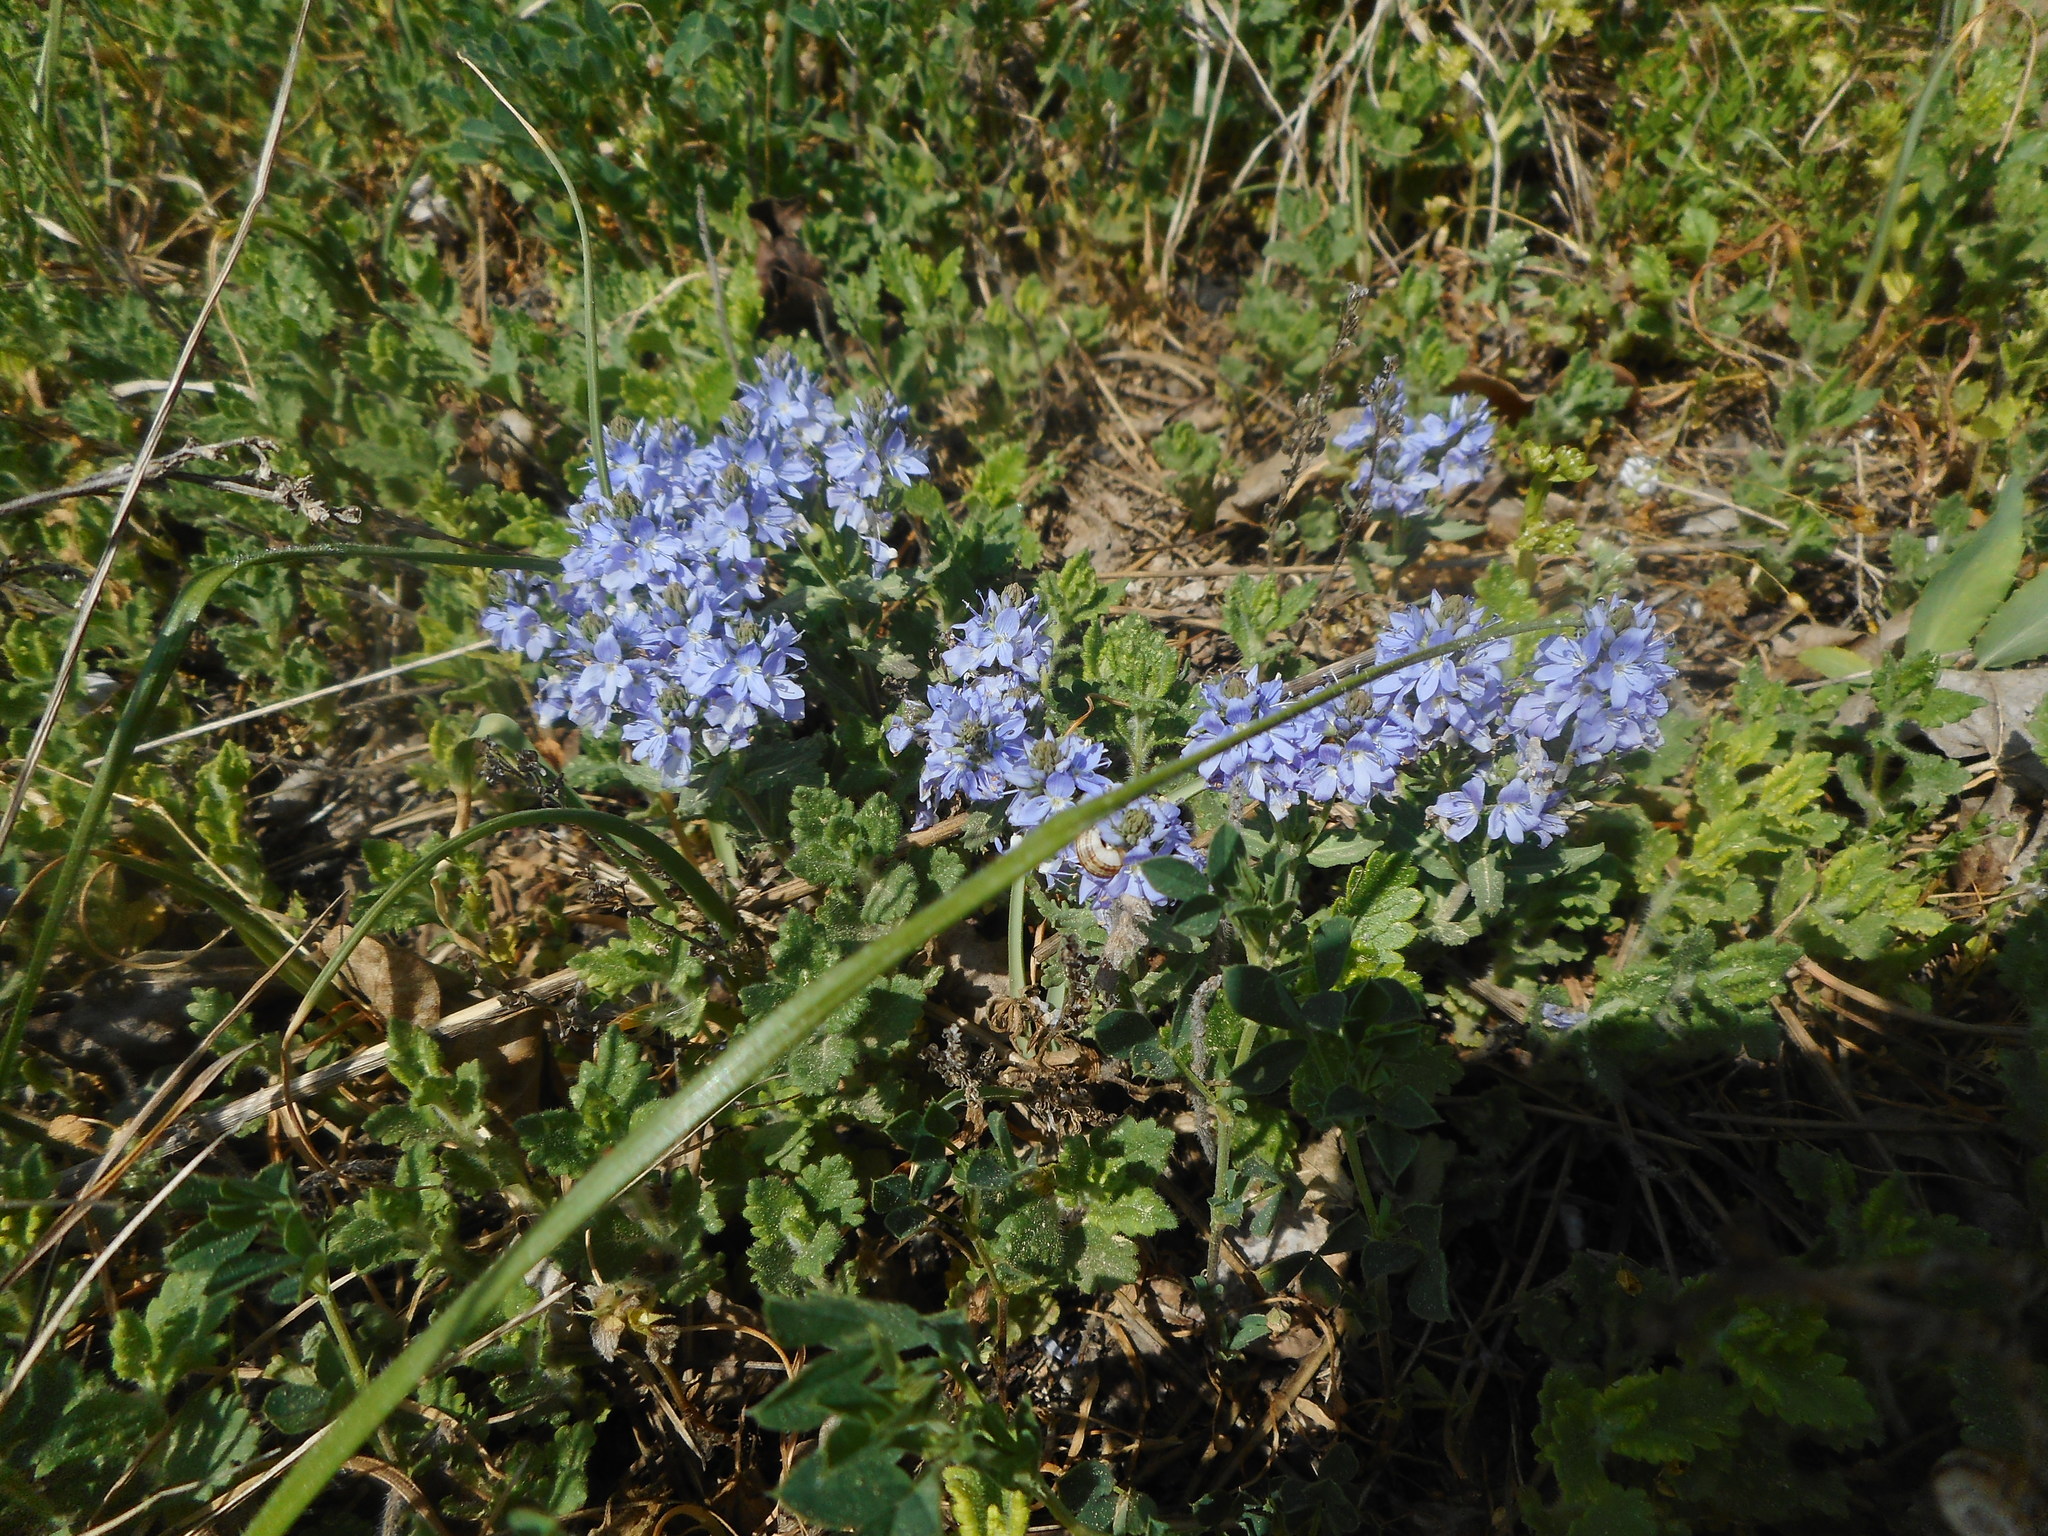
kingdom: Plantae
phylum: Tracheophyta
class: Magnoliopsida
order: Lamiales
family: Plantaginaceae
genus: Veronica
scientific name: Veronica prostrata
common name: Prostrate speedwell
